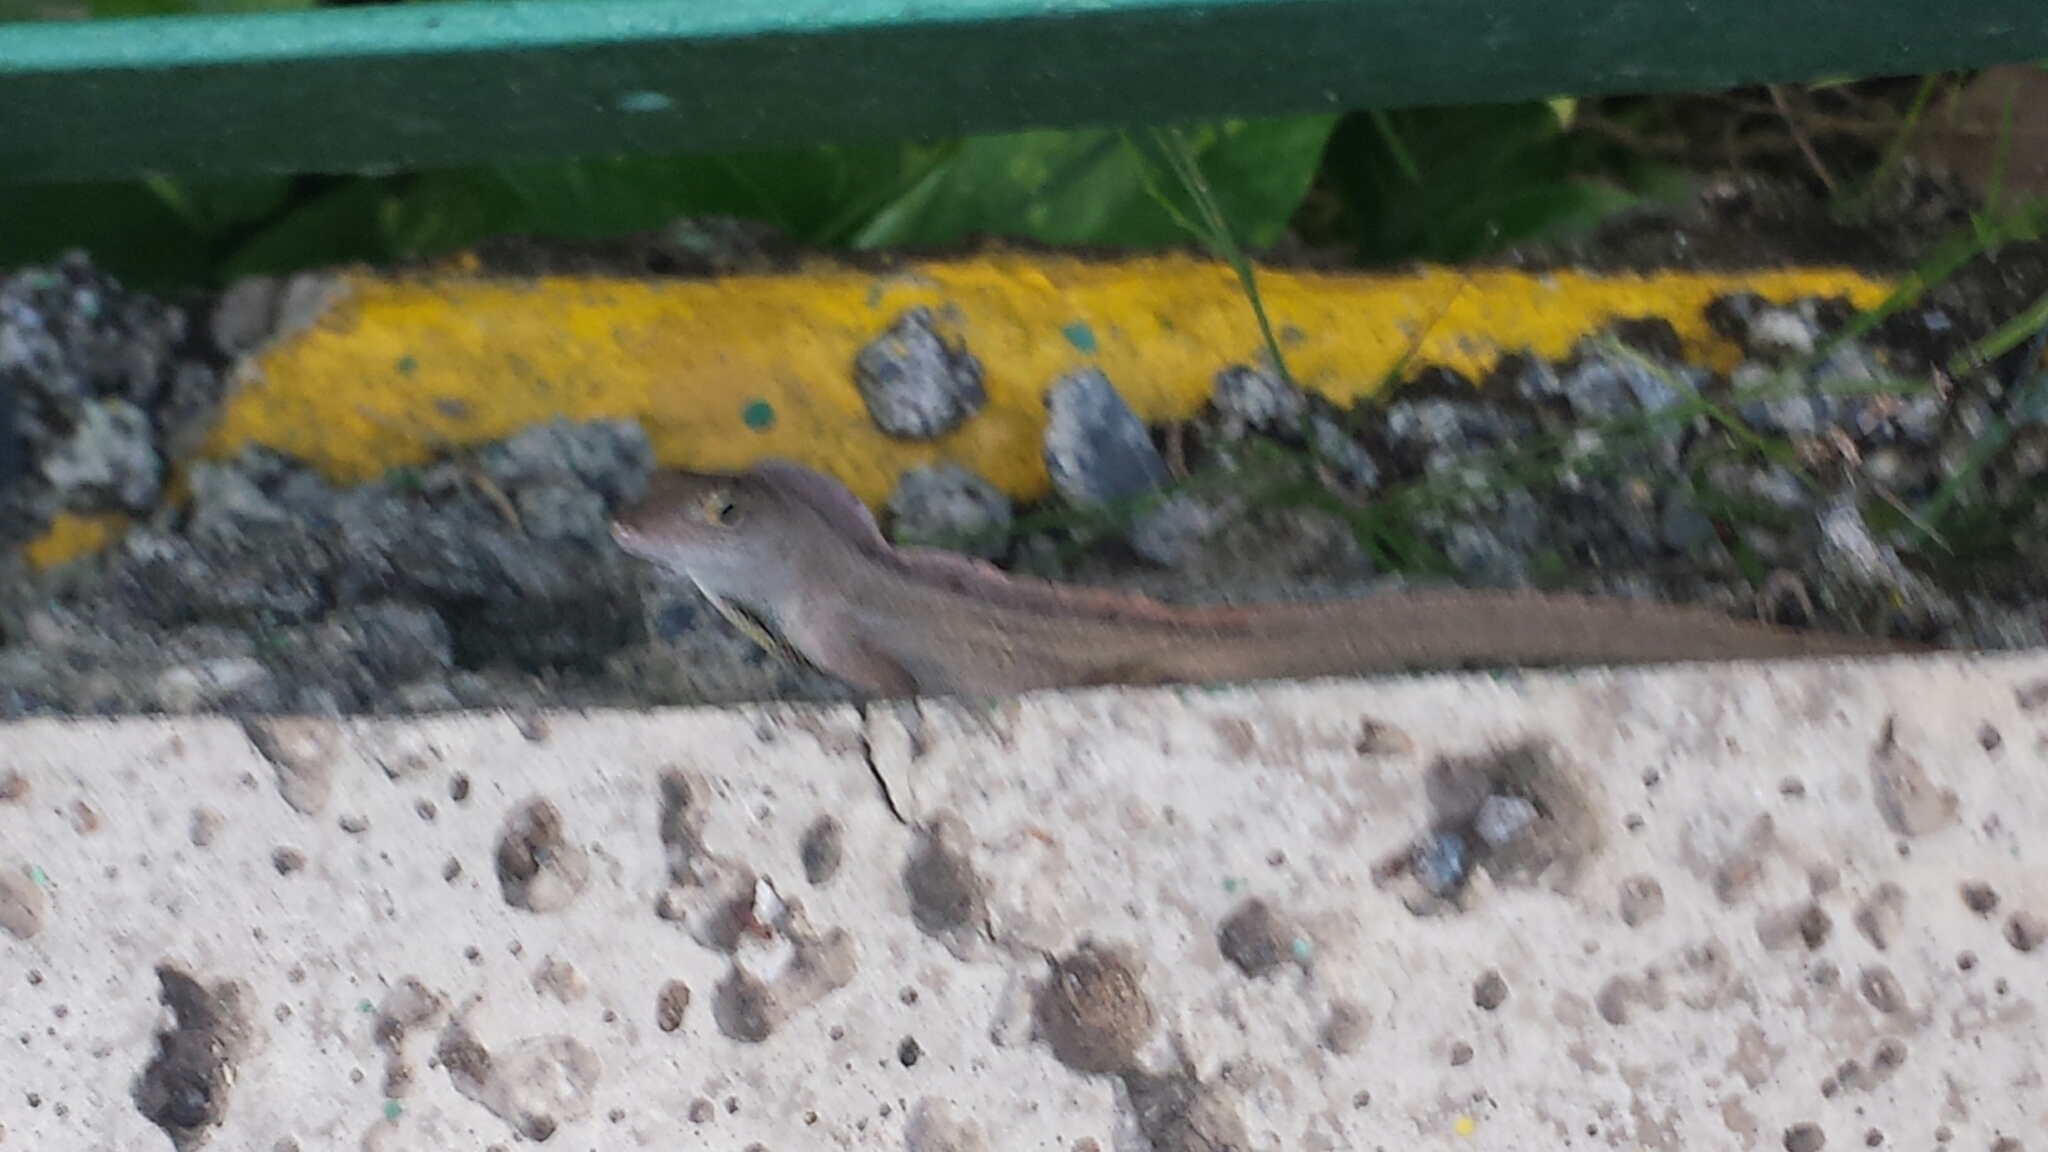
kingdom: Animalia
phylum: Chordata
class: Squamata
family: Dactyloidae
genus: Anolis
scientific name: Anolis sagrei
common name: Brown anole
